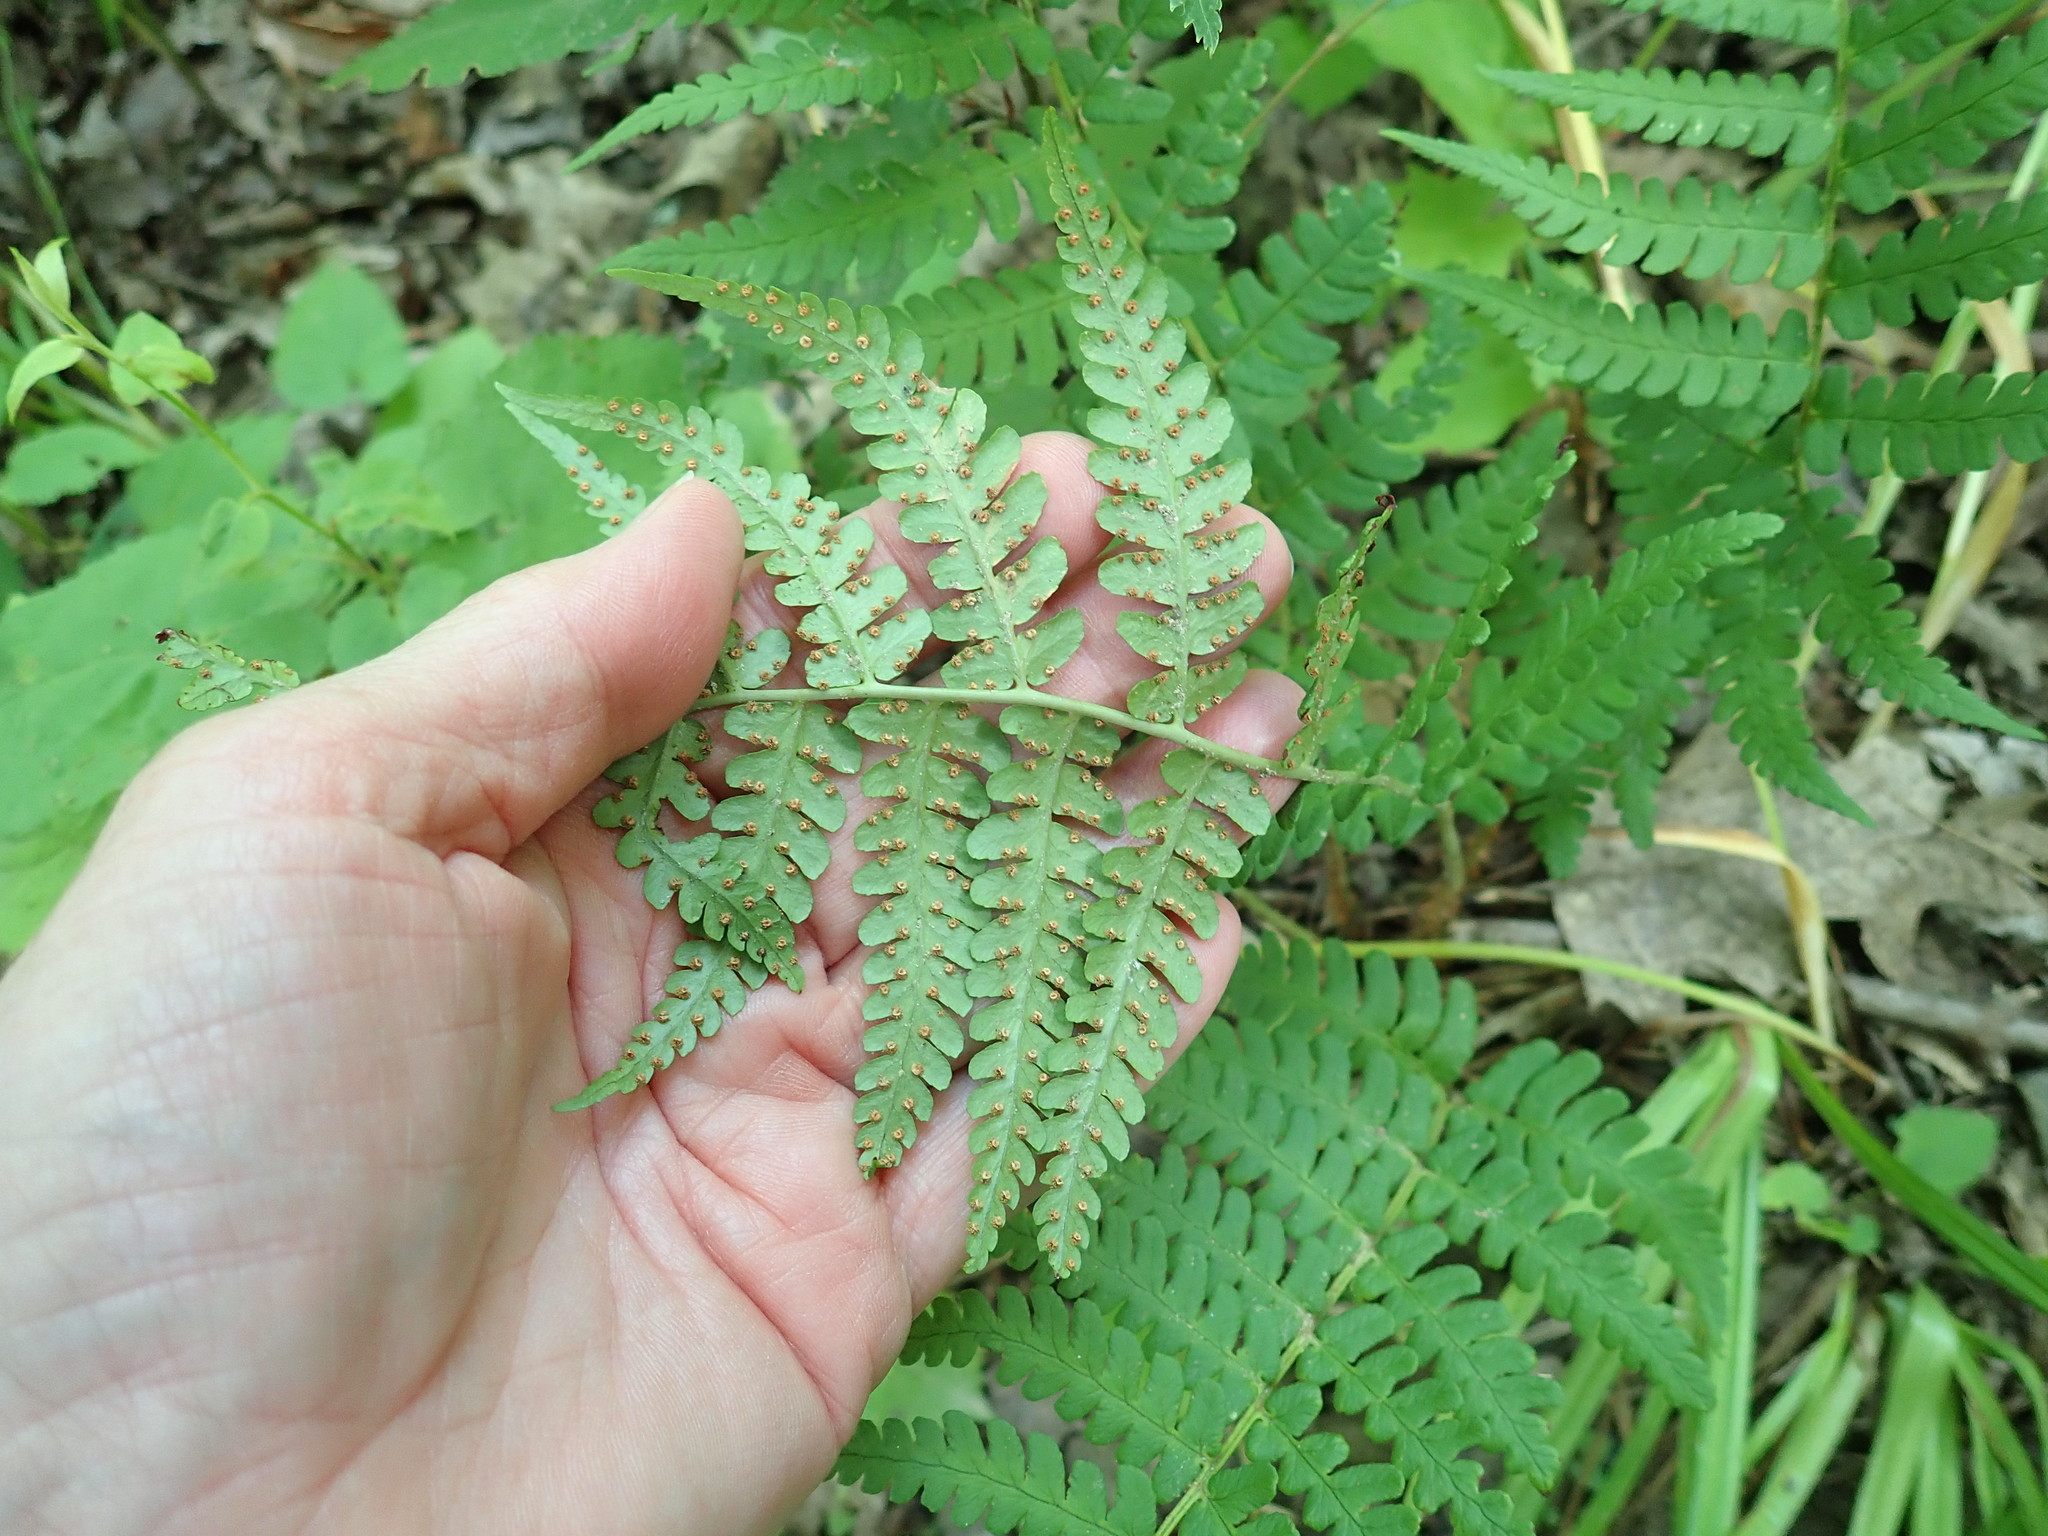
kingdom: Plantae
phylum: Tracheophyta
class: Polypodiopsida
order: Polypodiales
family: Dryopteridaceae
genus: Dryopteris
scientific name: Dryopteris marginalis
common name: Marginal wood fern
